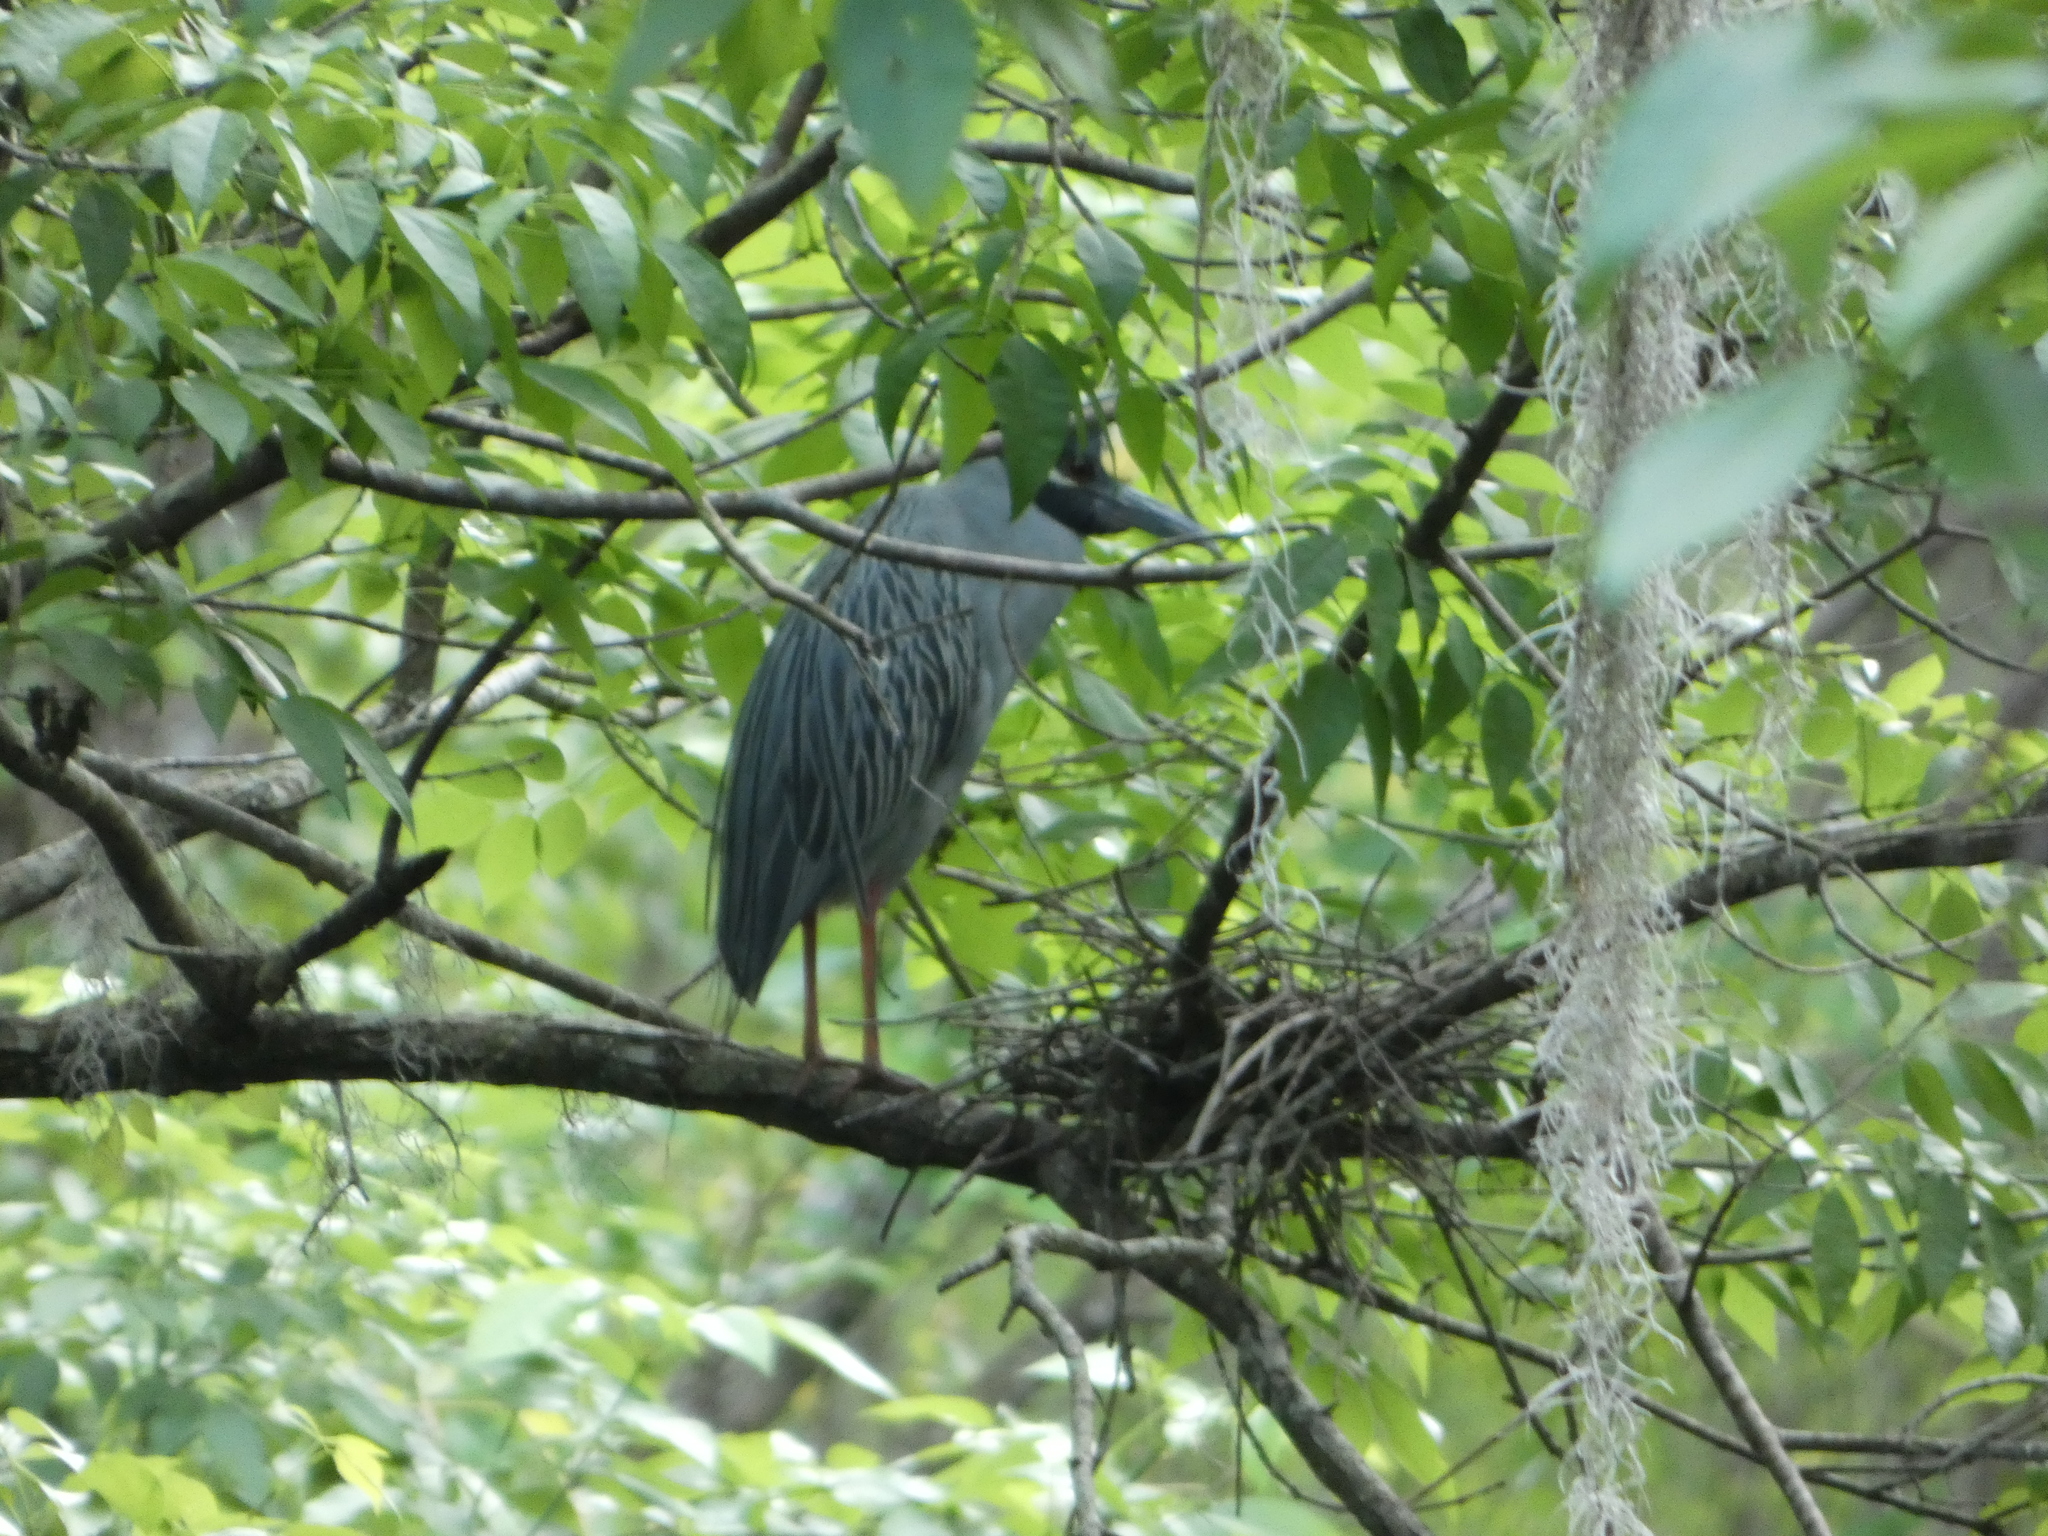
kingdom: Animalia
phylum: Chordata
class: Aves
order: Pelecaniformes
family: Ardeidae
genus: Nyctanassa
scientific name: Nyctanassa violacea
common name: Yellow-crowned night heron
